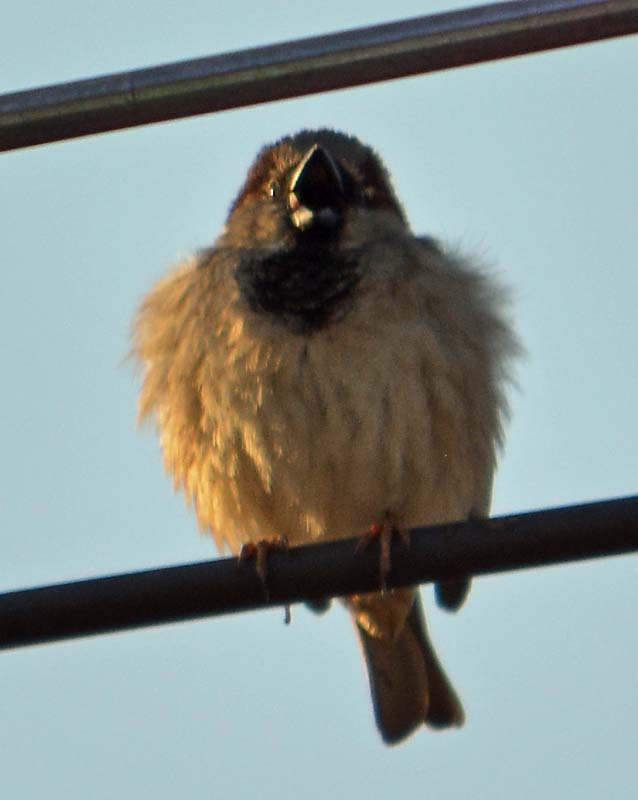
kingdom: Animalia
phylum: Chordata
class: Aves
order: Passeriformes
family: Passeridae
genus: Passer
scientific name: Passer domesticus
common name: House sparrow
